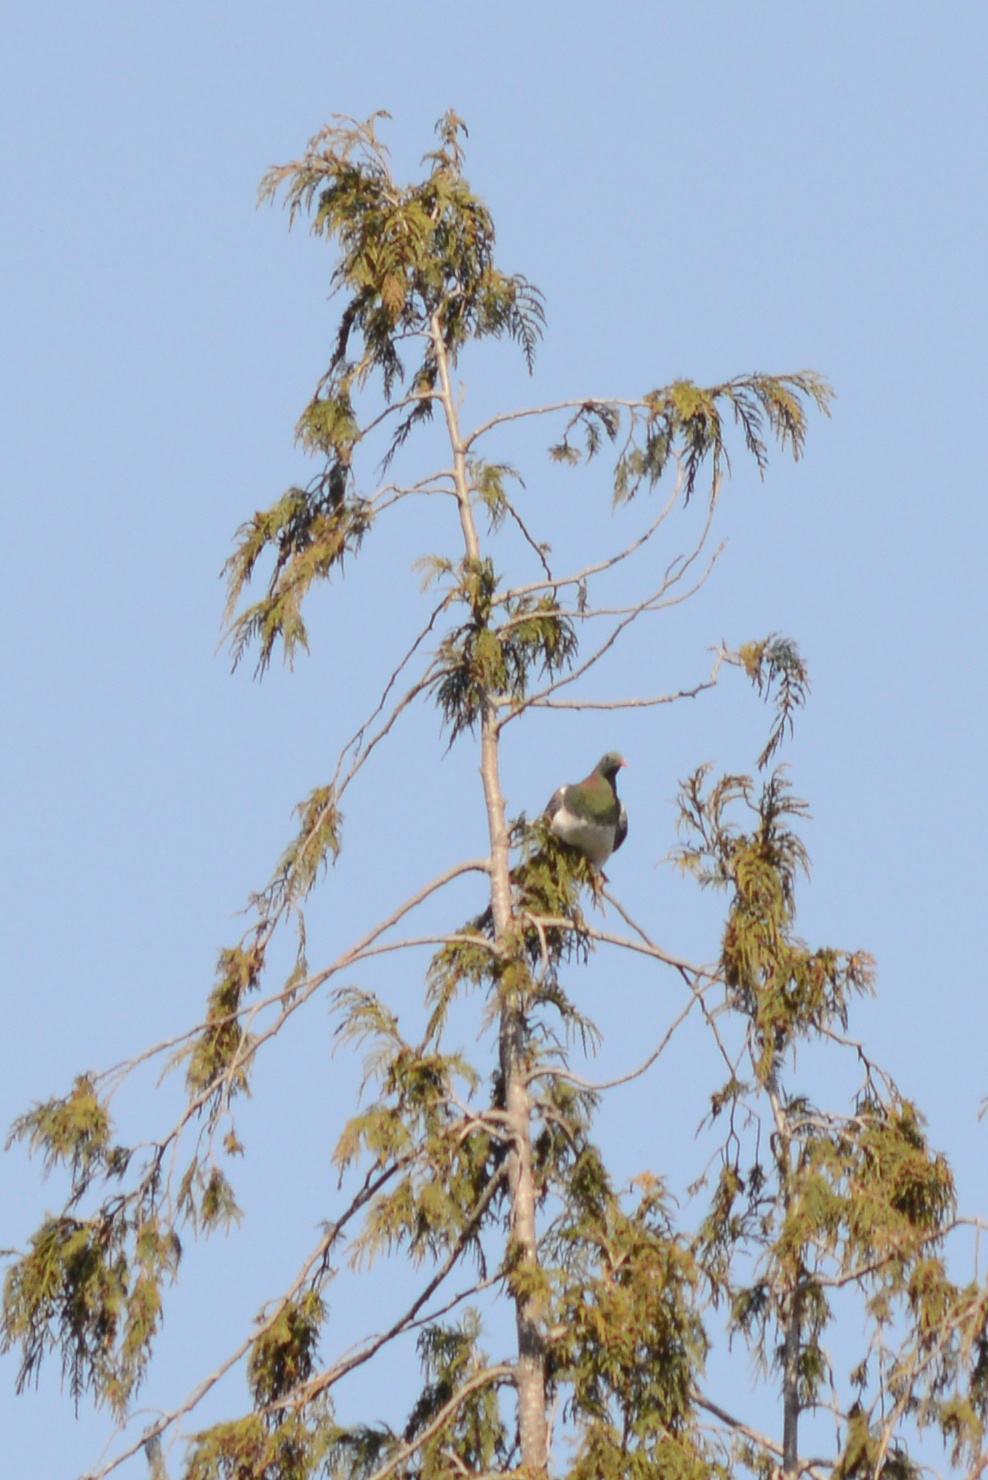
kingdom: Animalia
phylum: Chordata
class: Aves
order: Columbiformes
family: Columbidae
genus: Hemiphaga
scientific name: Hemiphaga novaeseelandiae
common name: New zealand pigeon
